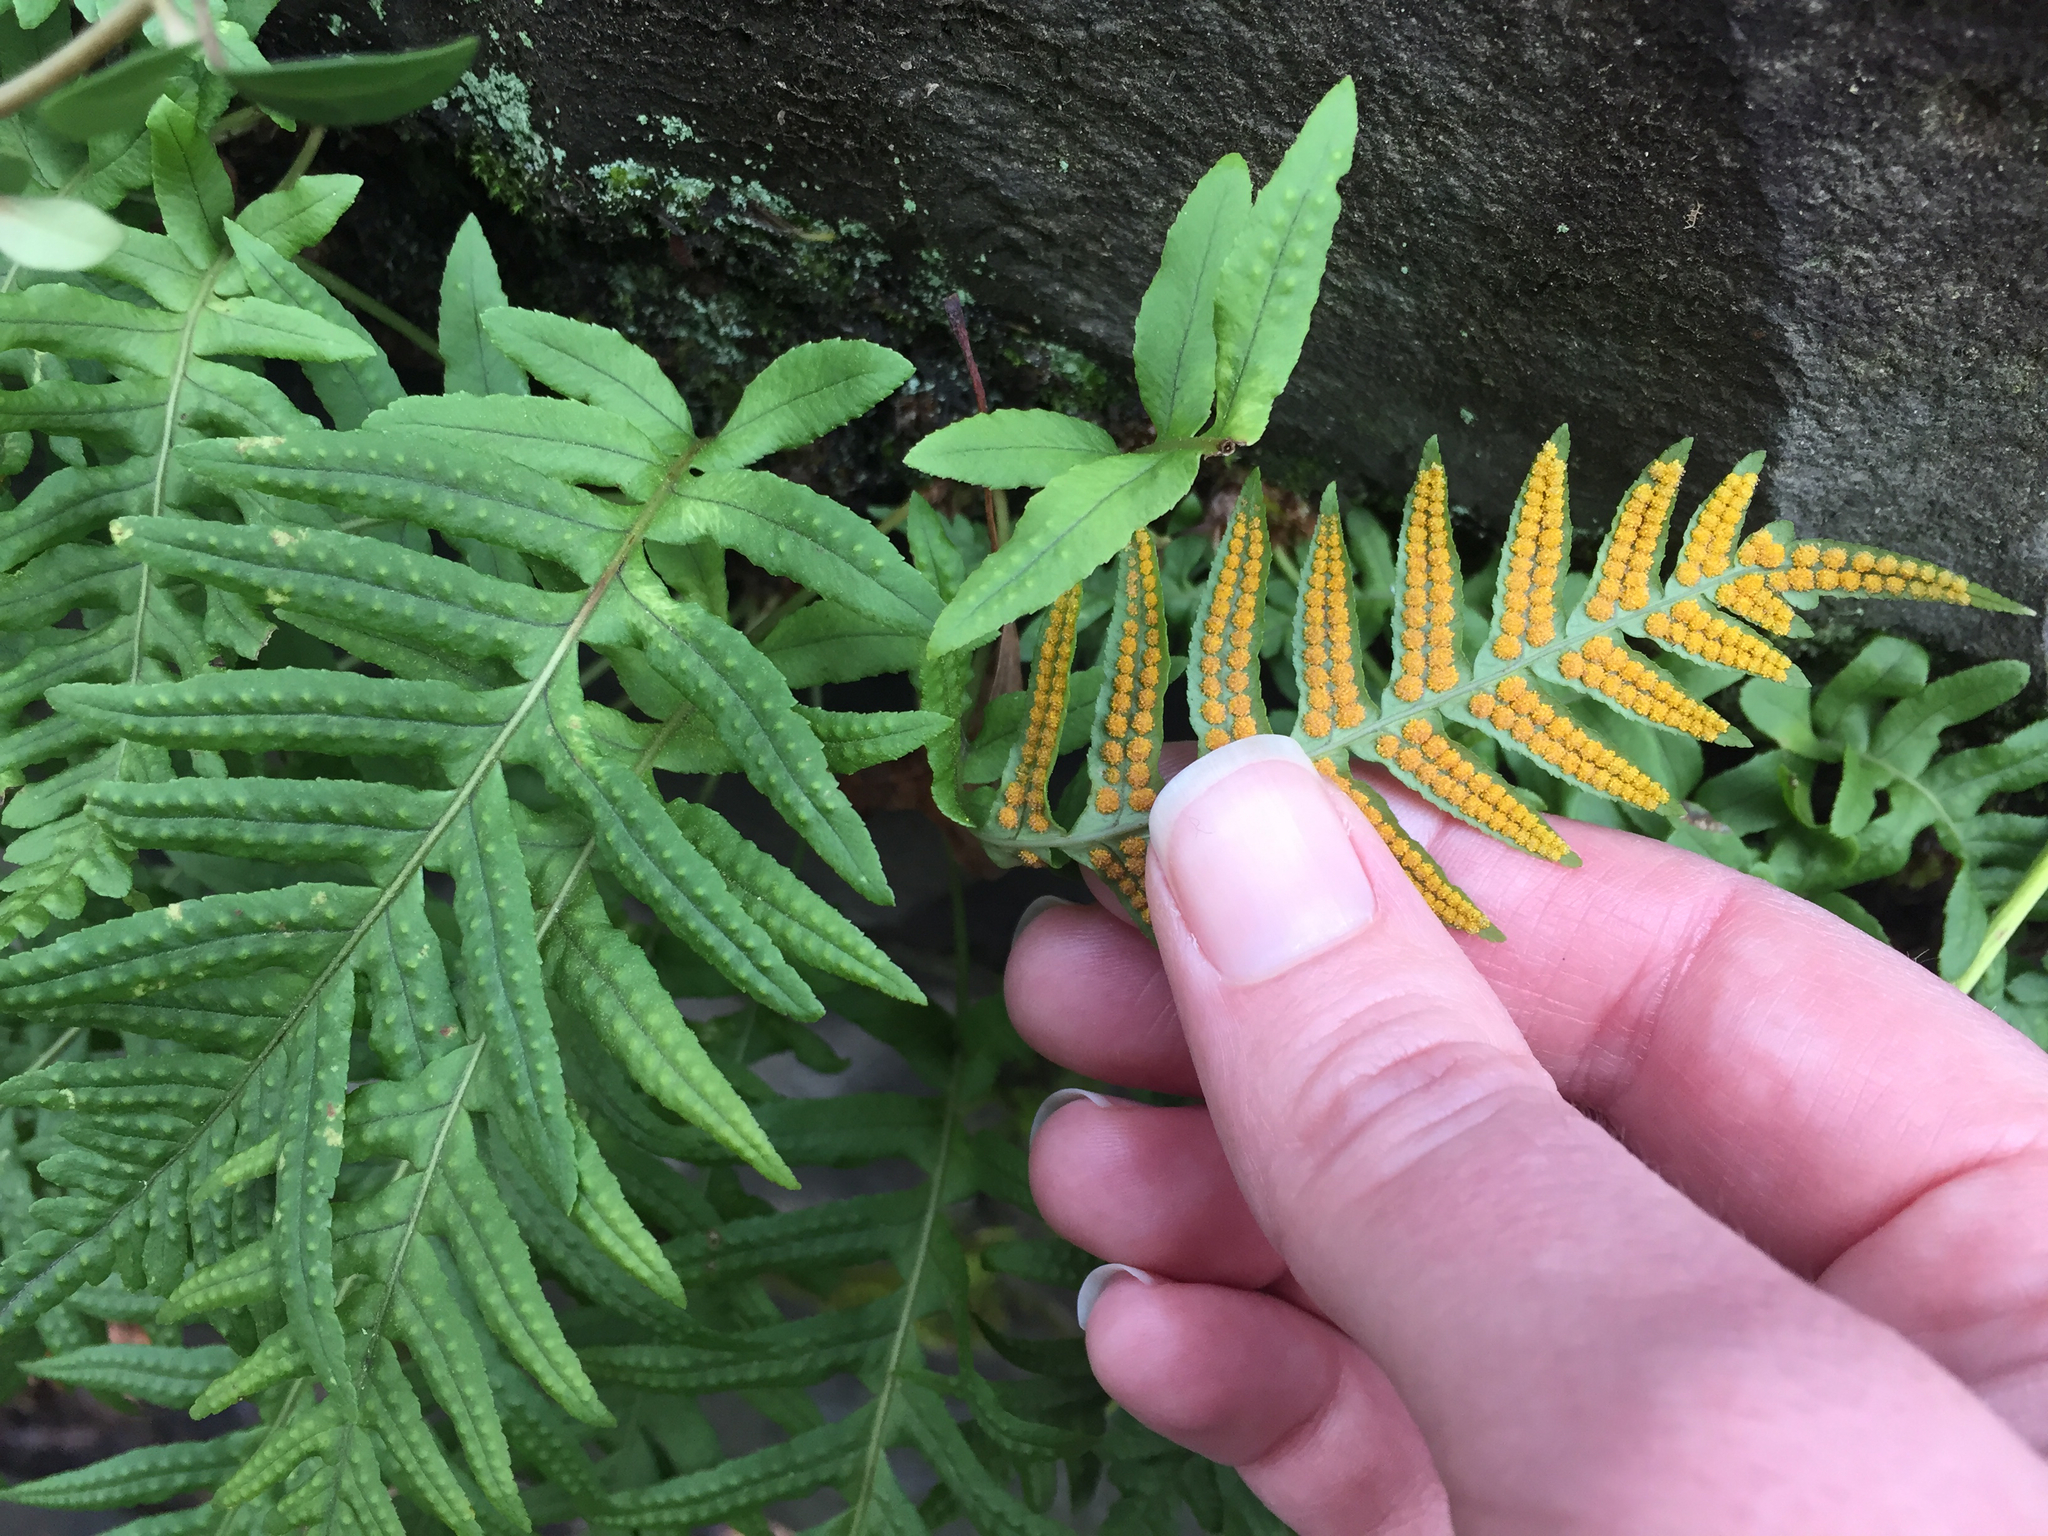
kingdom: Plantae
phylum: Tracheophyta
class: Polypodiopsida
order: Polypodiales
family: Polypodiaceae
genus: Polypodium
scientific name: Polypodium glycyrrhiza
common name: Licorice fern
